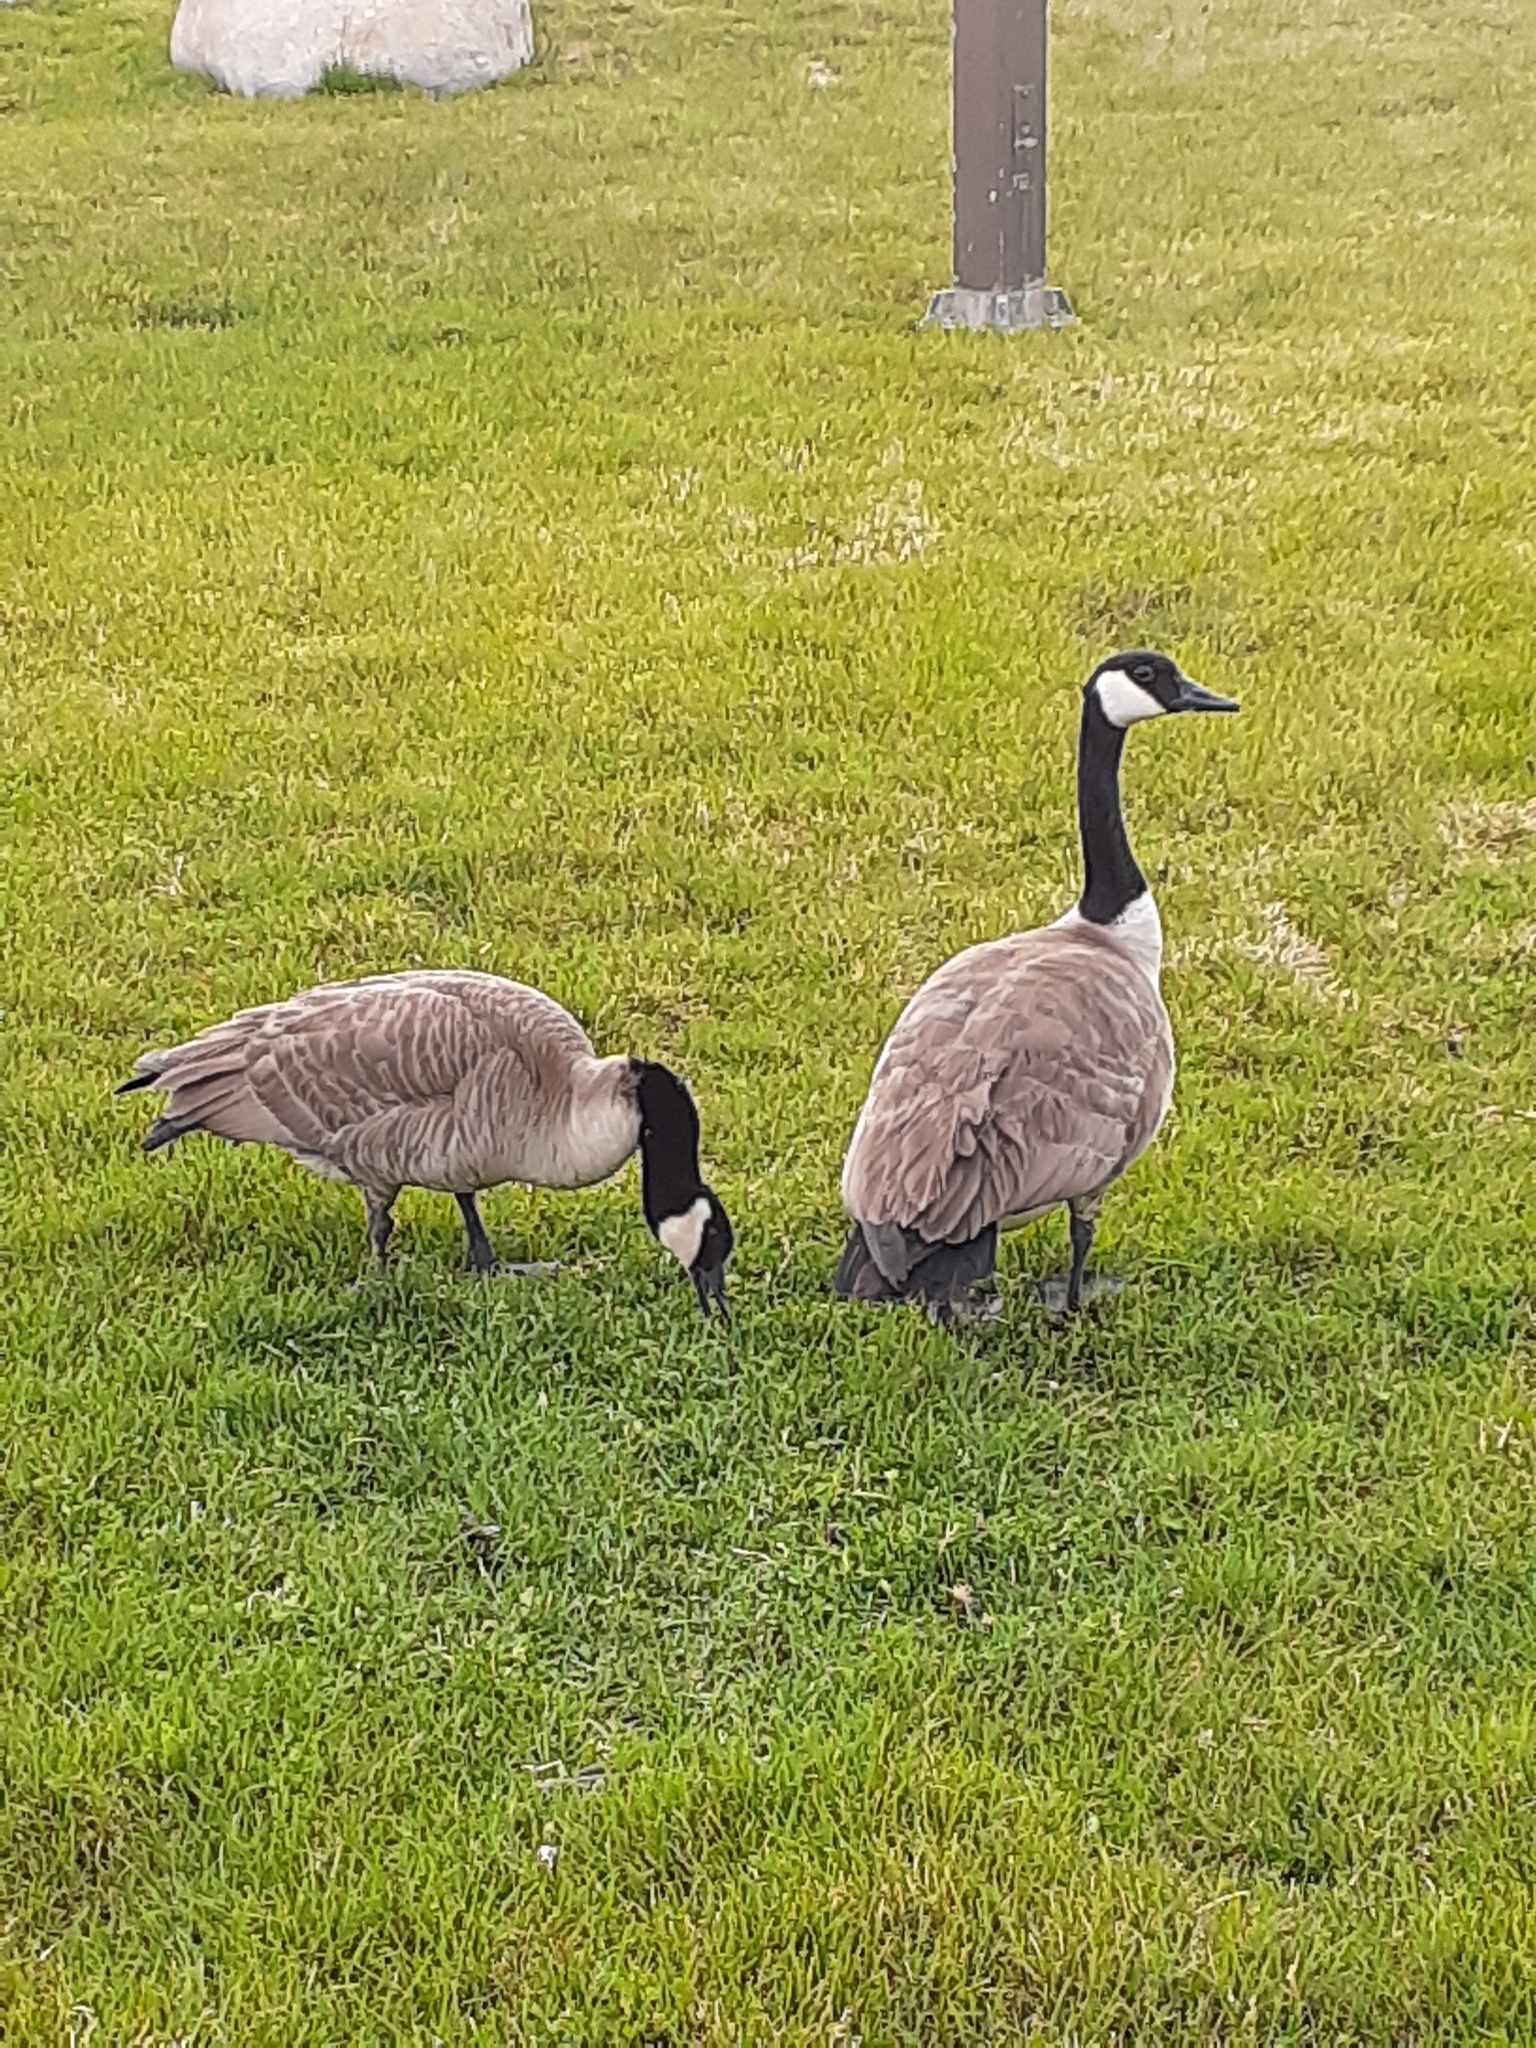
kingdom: Animalia
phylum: Chordata
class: Aves
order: Anseriformes
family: Anatidae
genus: Branta
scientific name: Branta canadensis
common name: Canada goose
